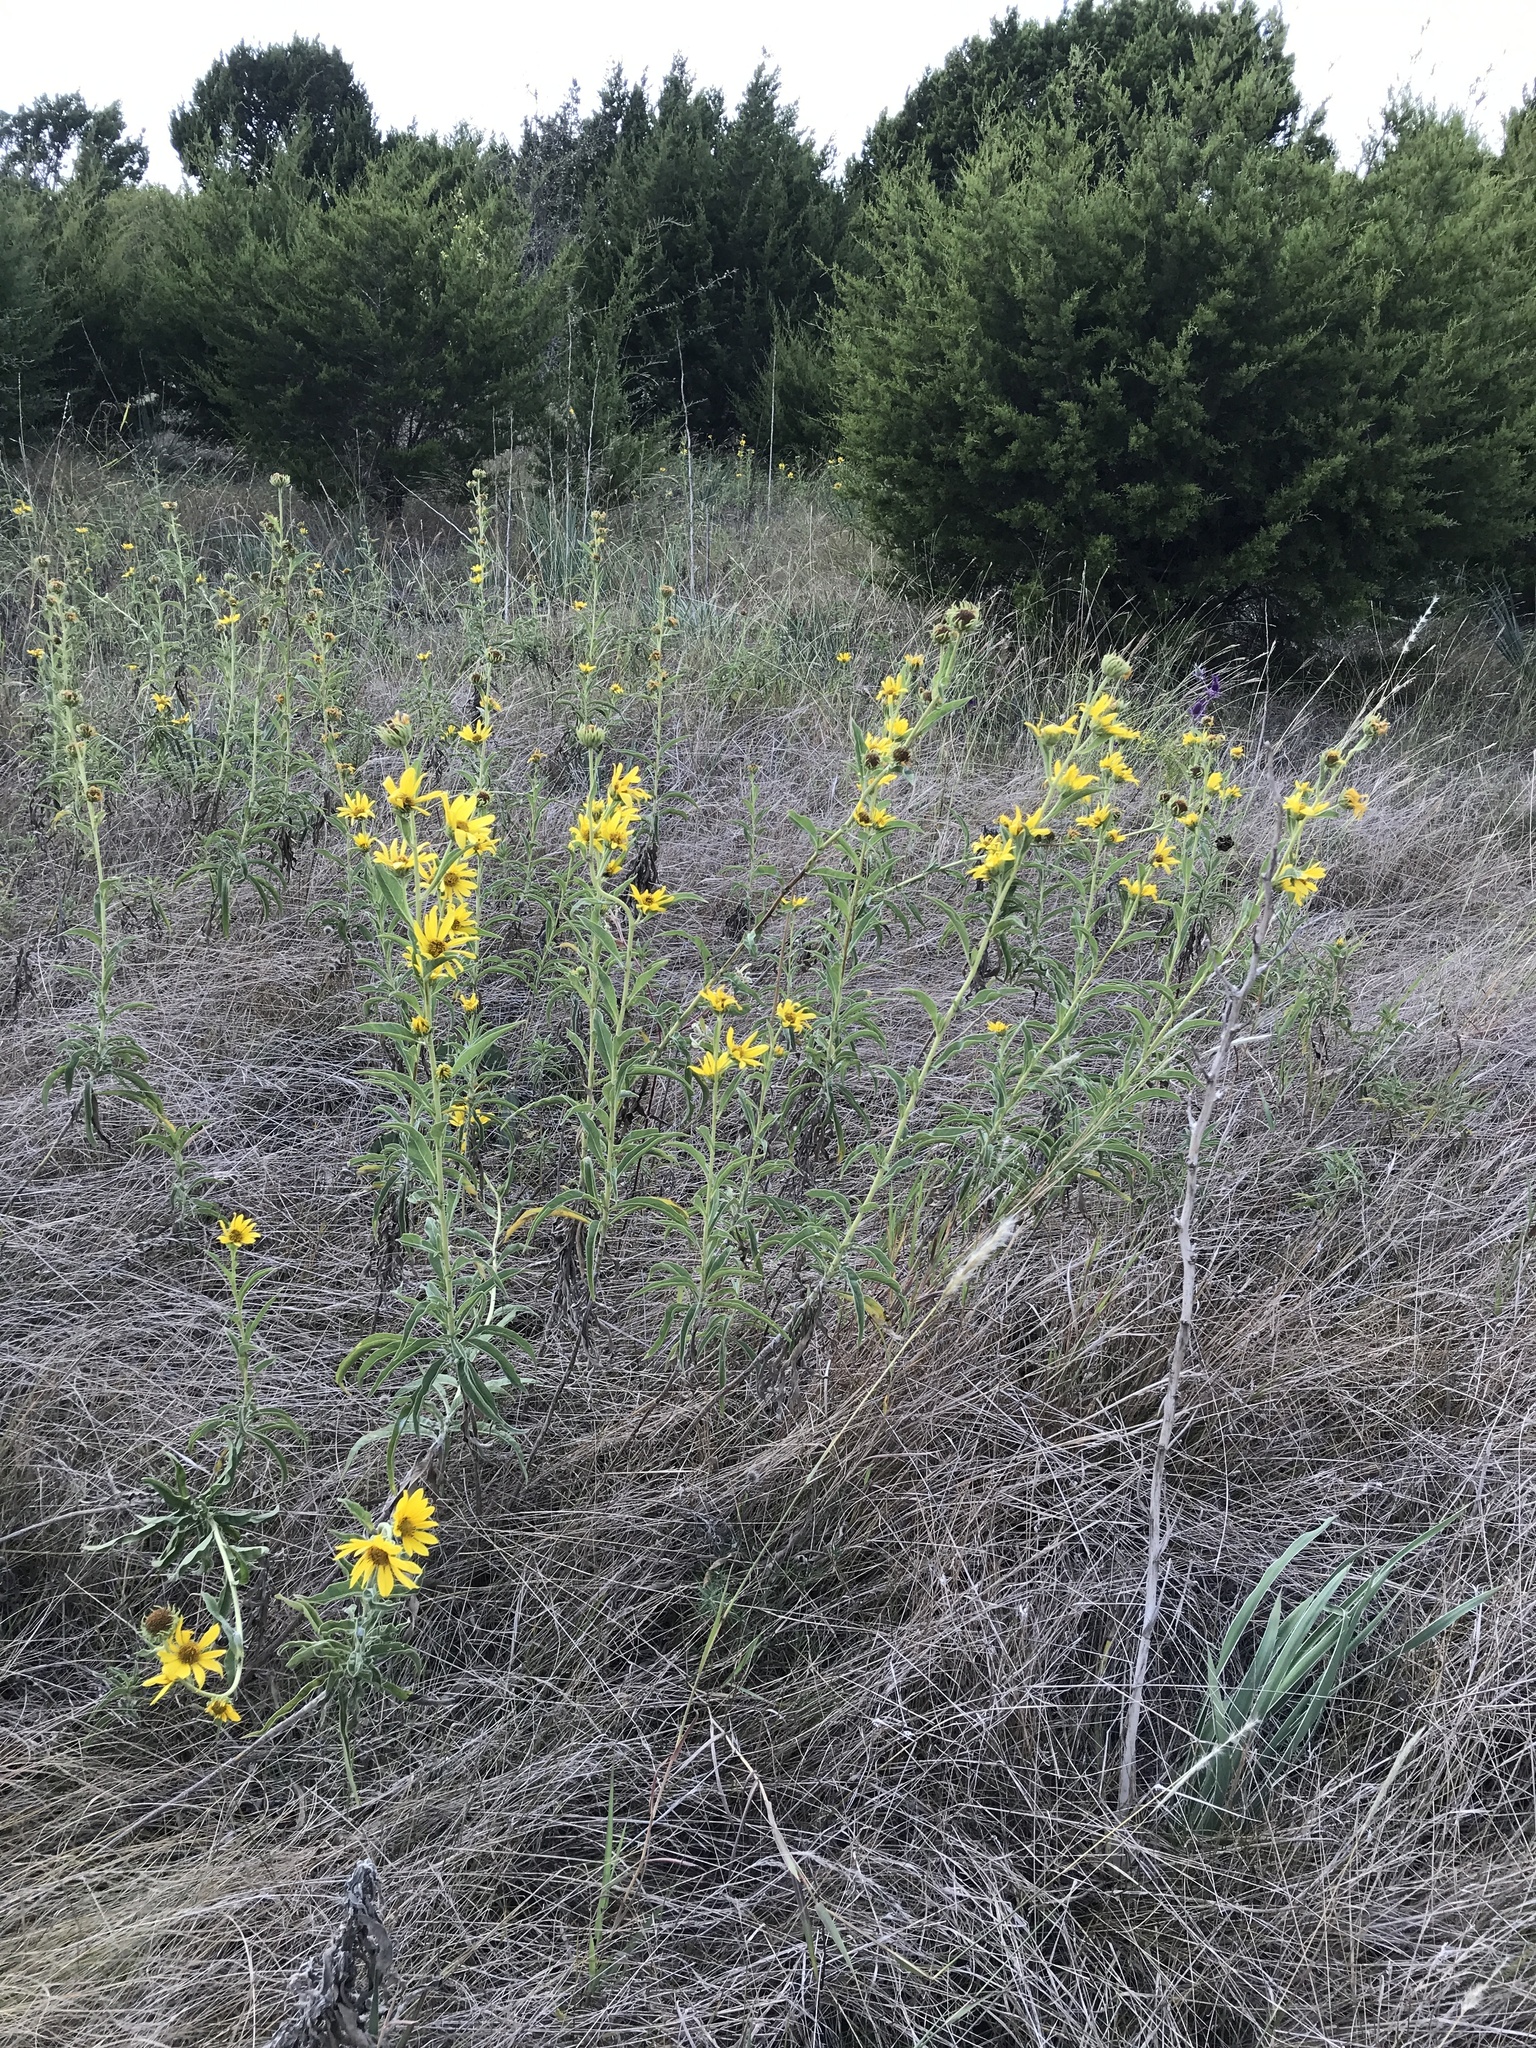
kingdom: Plantae
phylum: Tracheophyta
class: Magnoliopsida
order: Asterales
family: Asteraceae
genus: Helianthus
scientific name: Helianthus maximiliani
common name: Maximilian's sunflower
